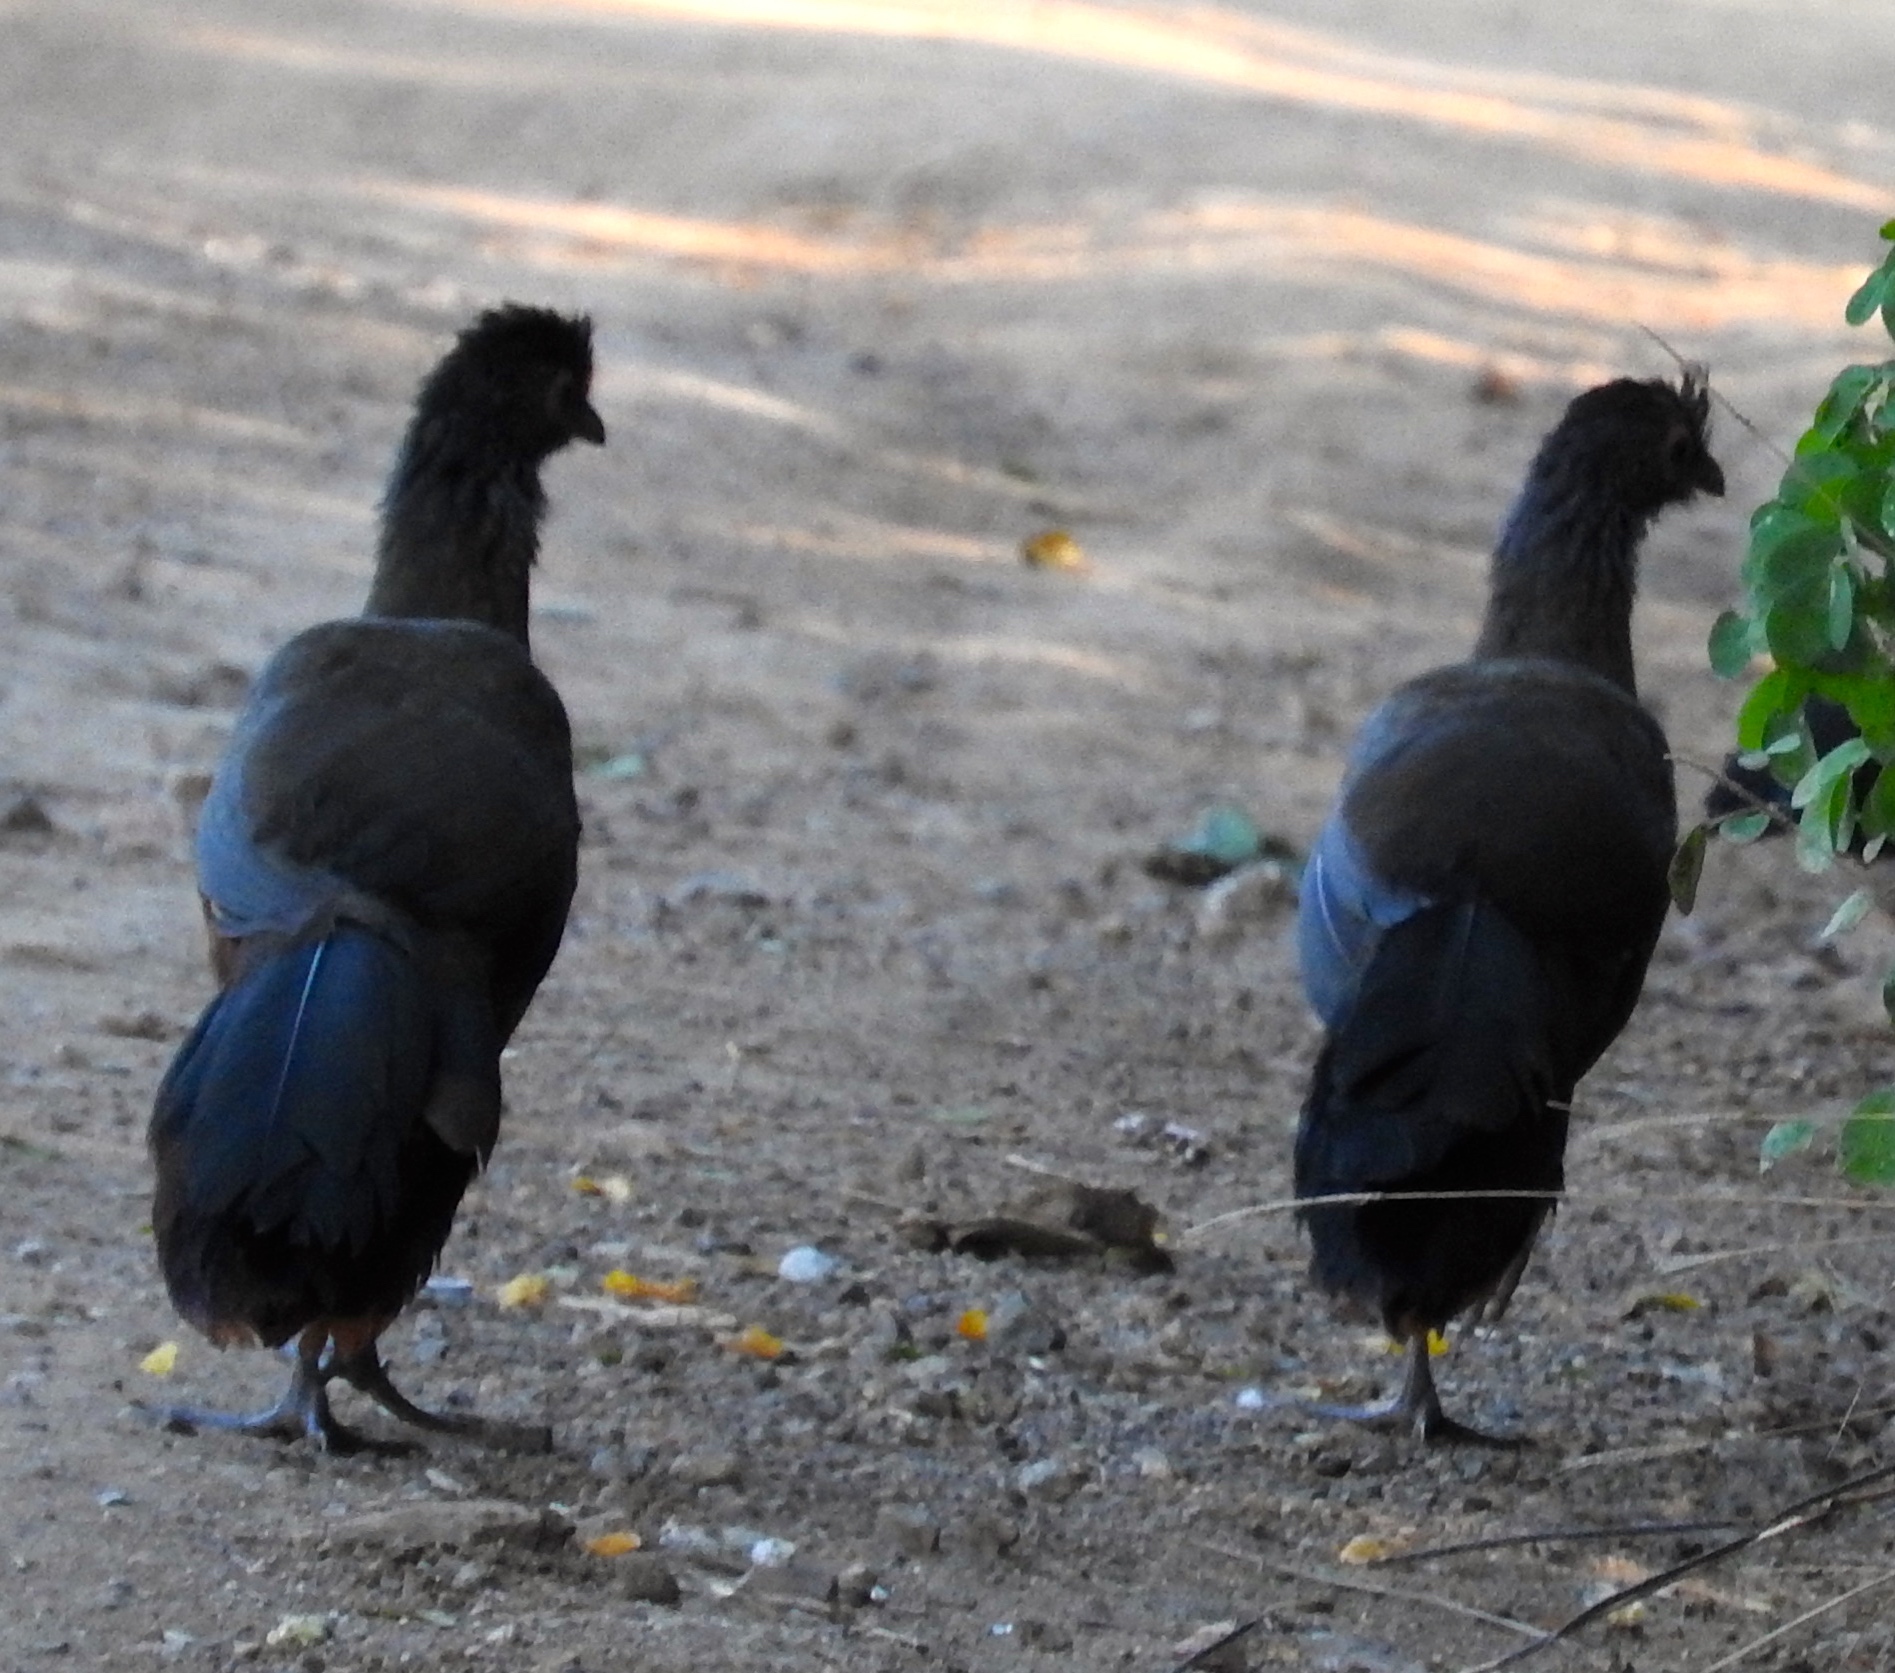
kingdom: Animalia
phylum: Chordata
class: Aves
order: Galliformes
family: Cracidae
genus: Ortalis
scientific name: Ortalis wagleri
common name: Rufous-bellied chachalaca
